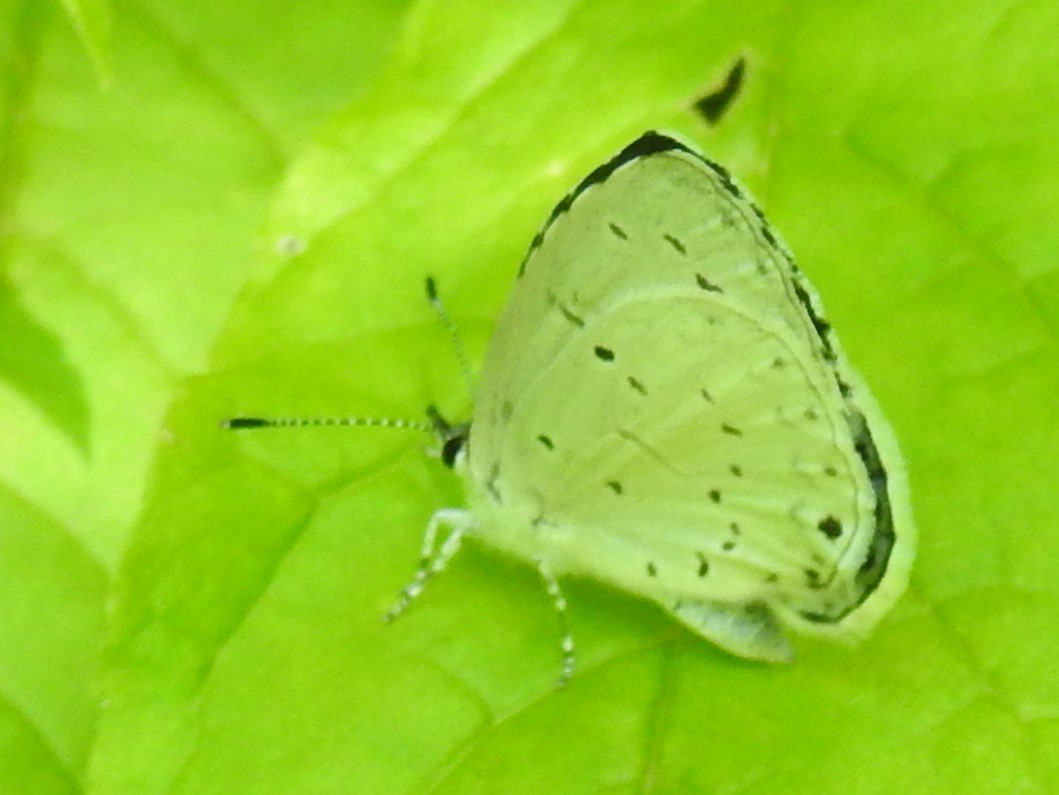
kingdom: Animalia
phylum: Arthropoda
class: Insecta
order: Lepidoptera
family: Lycaenidae
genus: Cyaniris
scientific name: Cyaniris neglecta
